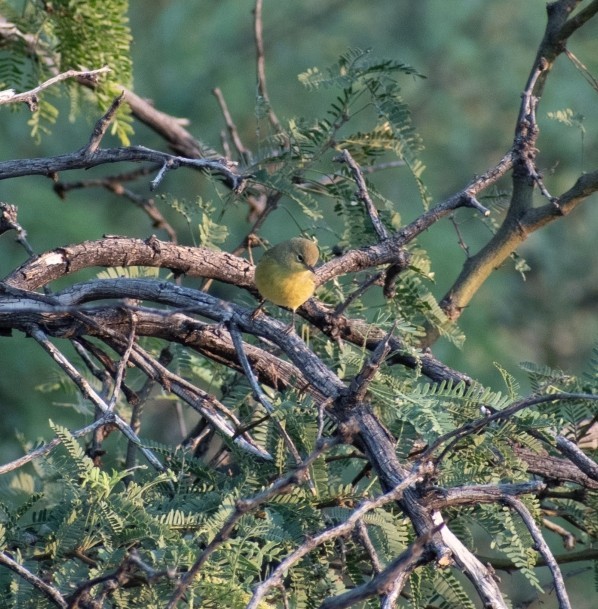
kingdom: Animalia
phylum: Chordata
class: Aves
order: Passeriformes
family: Parulidae
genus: Leiothlypis
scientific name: Leiothlypis celata
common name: Orange-crowned warbler
